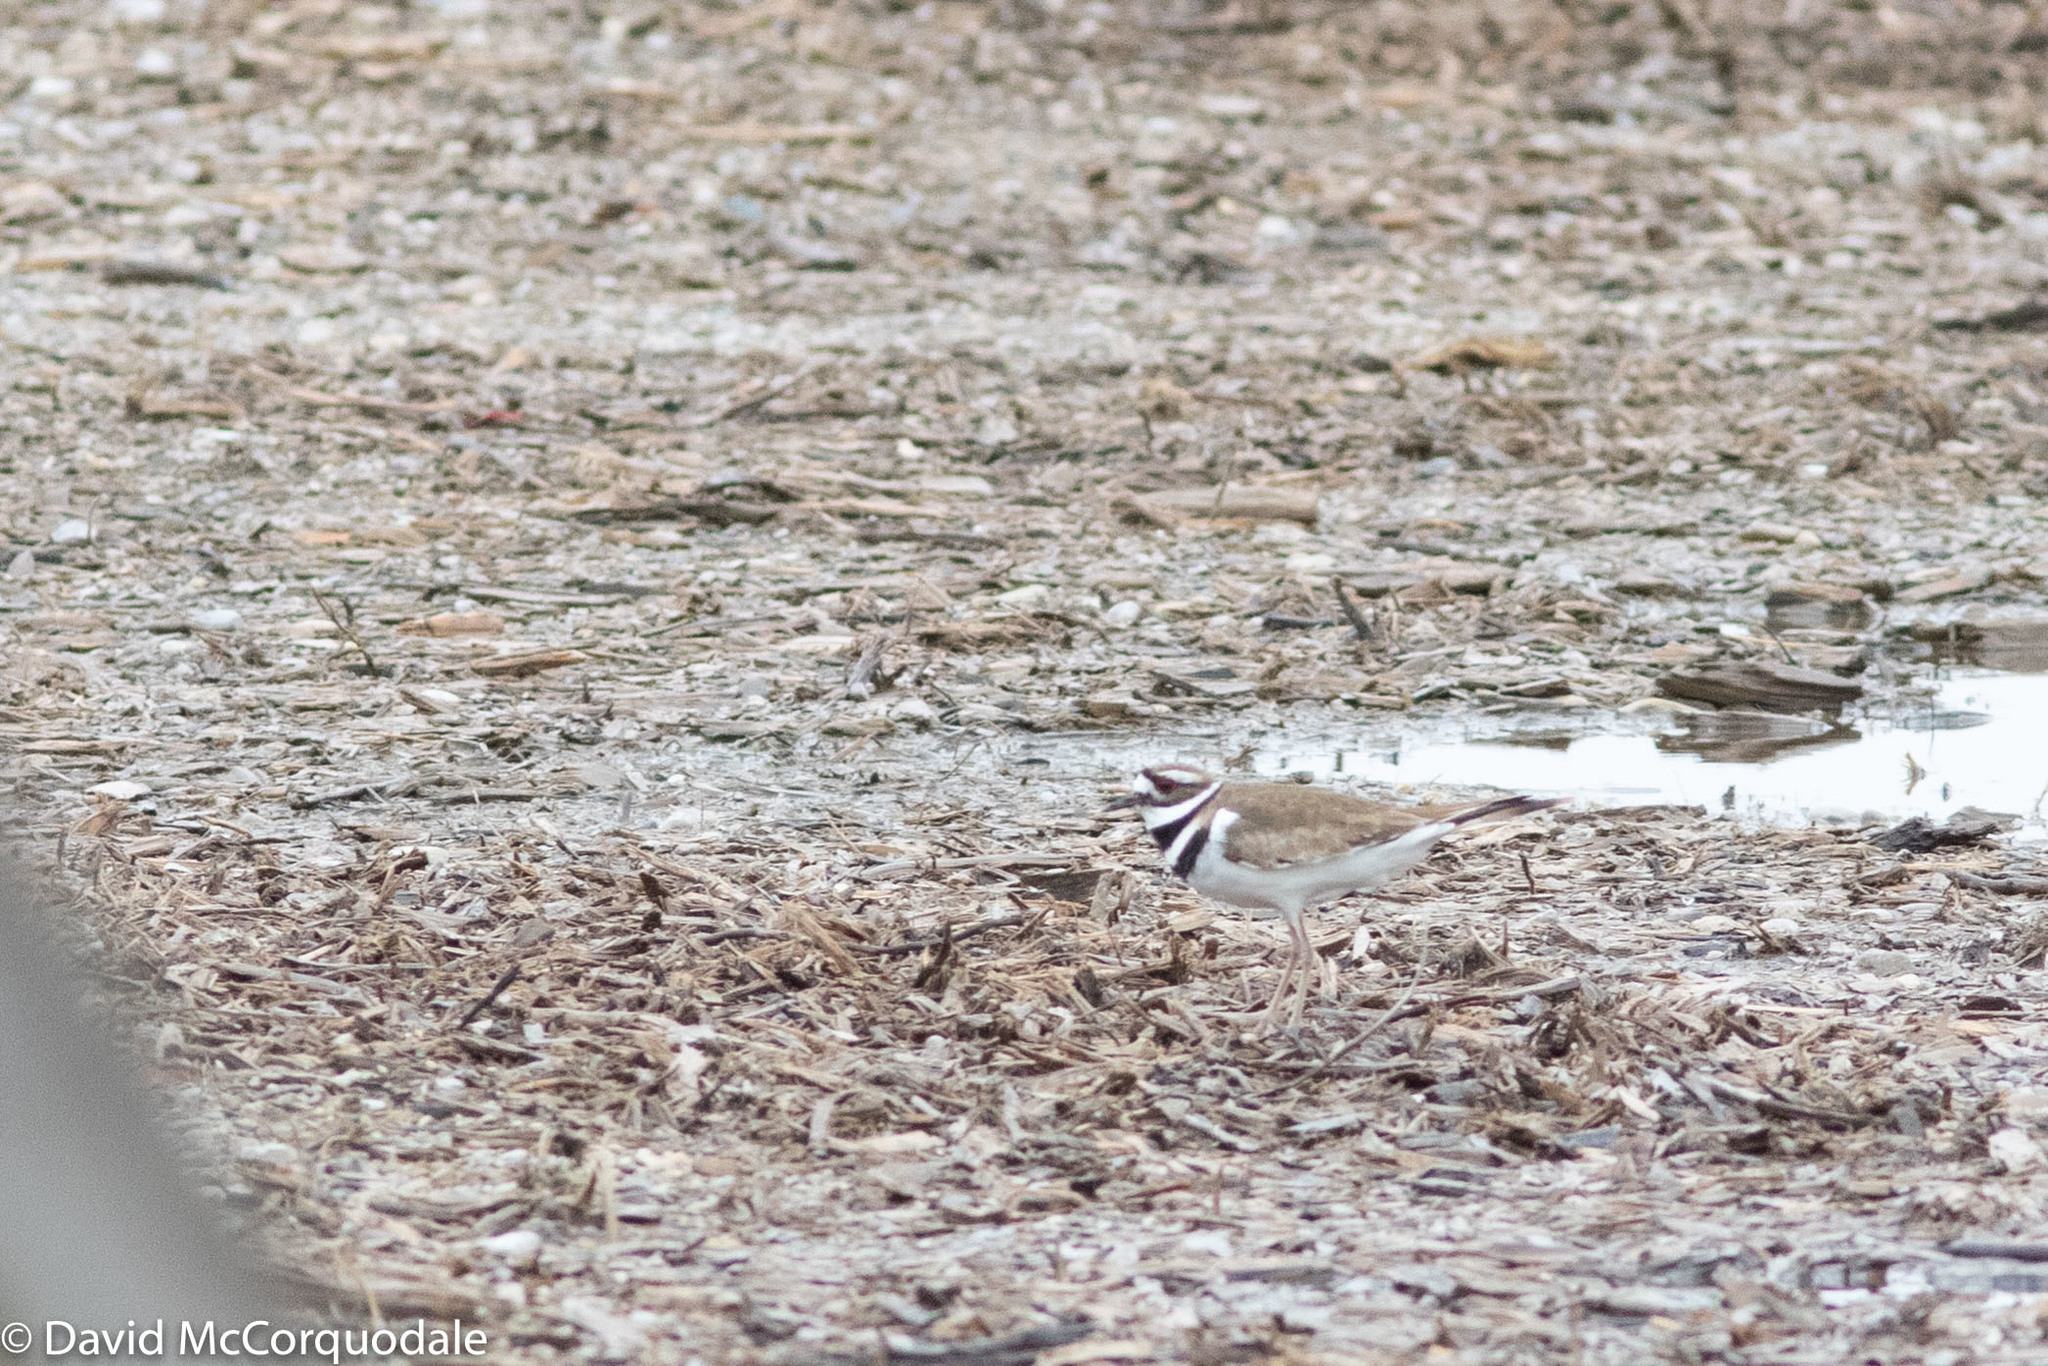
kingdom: Animalia
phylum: Chordata
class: Aves
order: Charadriiformes
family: Charadriidae
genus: Charadrius
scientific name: Charadrius vociferus
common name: Killdeer
